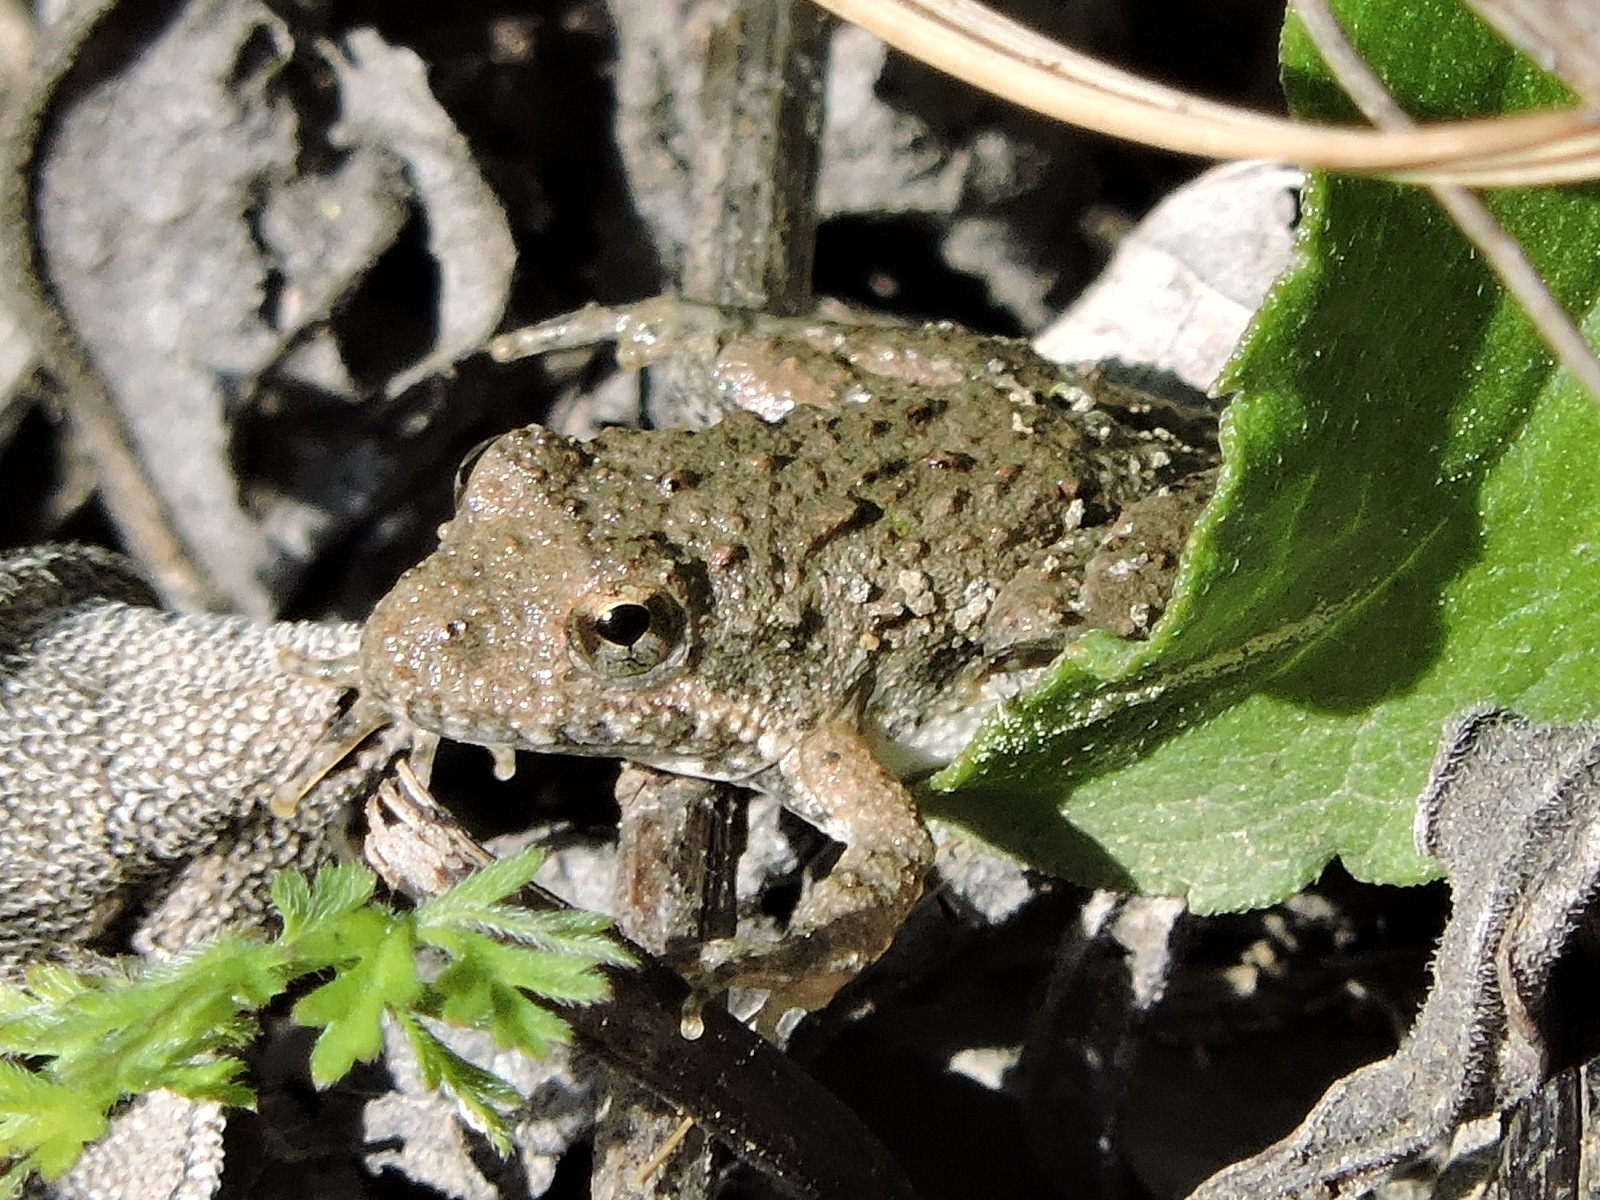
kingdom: Animalia
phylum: Chordata
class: Amphibia
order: Anura
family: Hylidae
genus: Acris
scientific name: Acris blanchardi
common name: Blanchard's cricket frog
